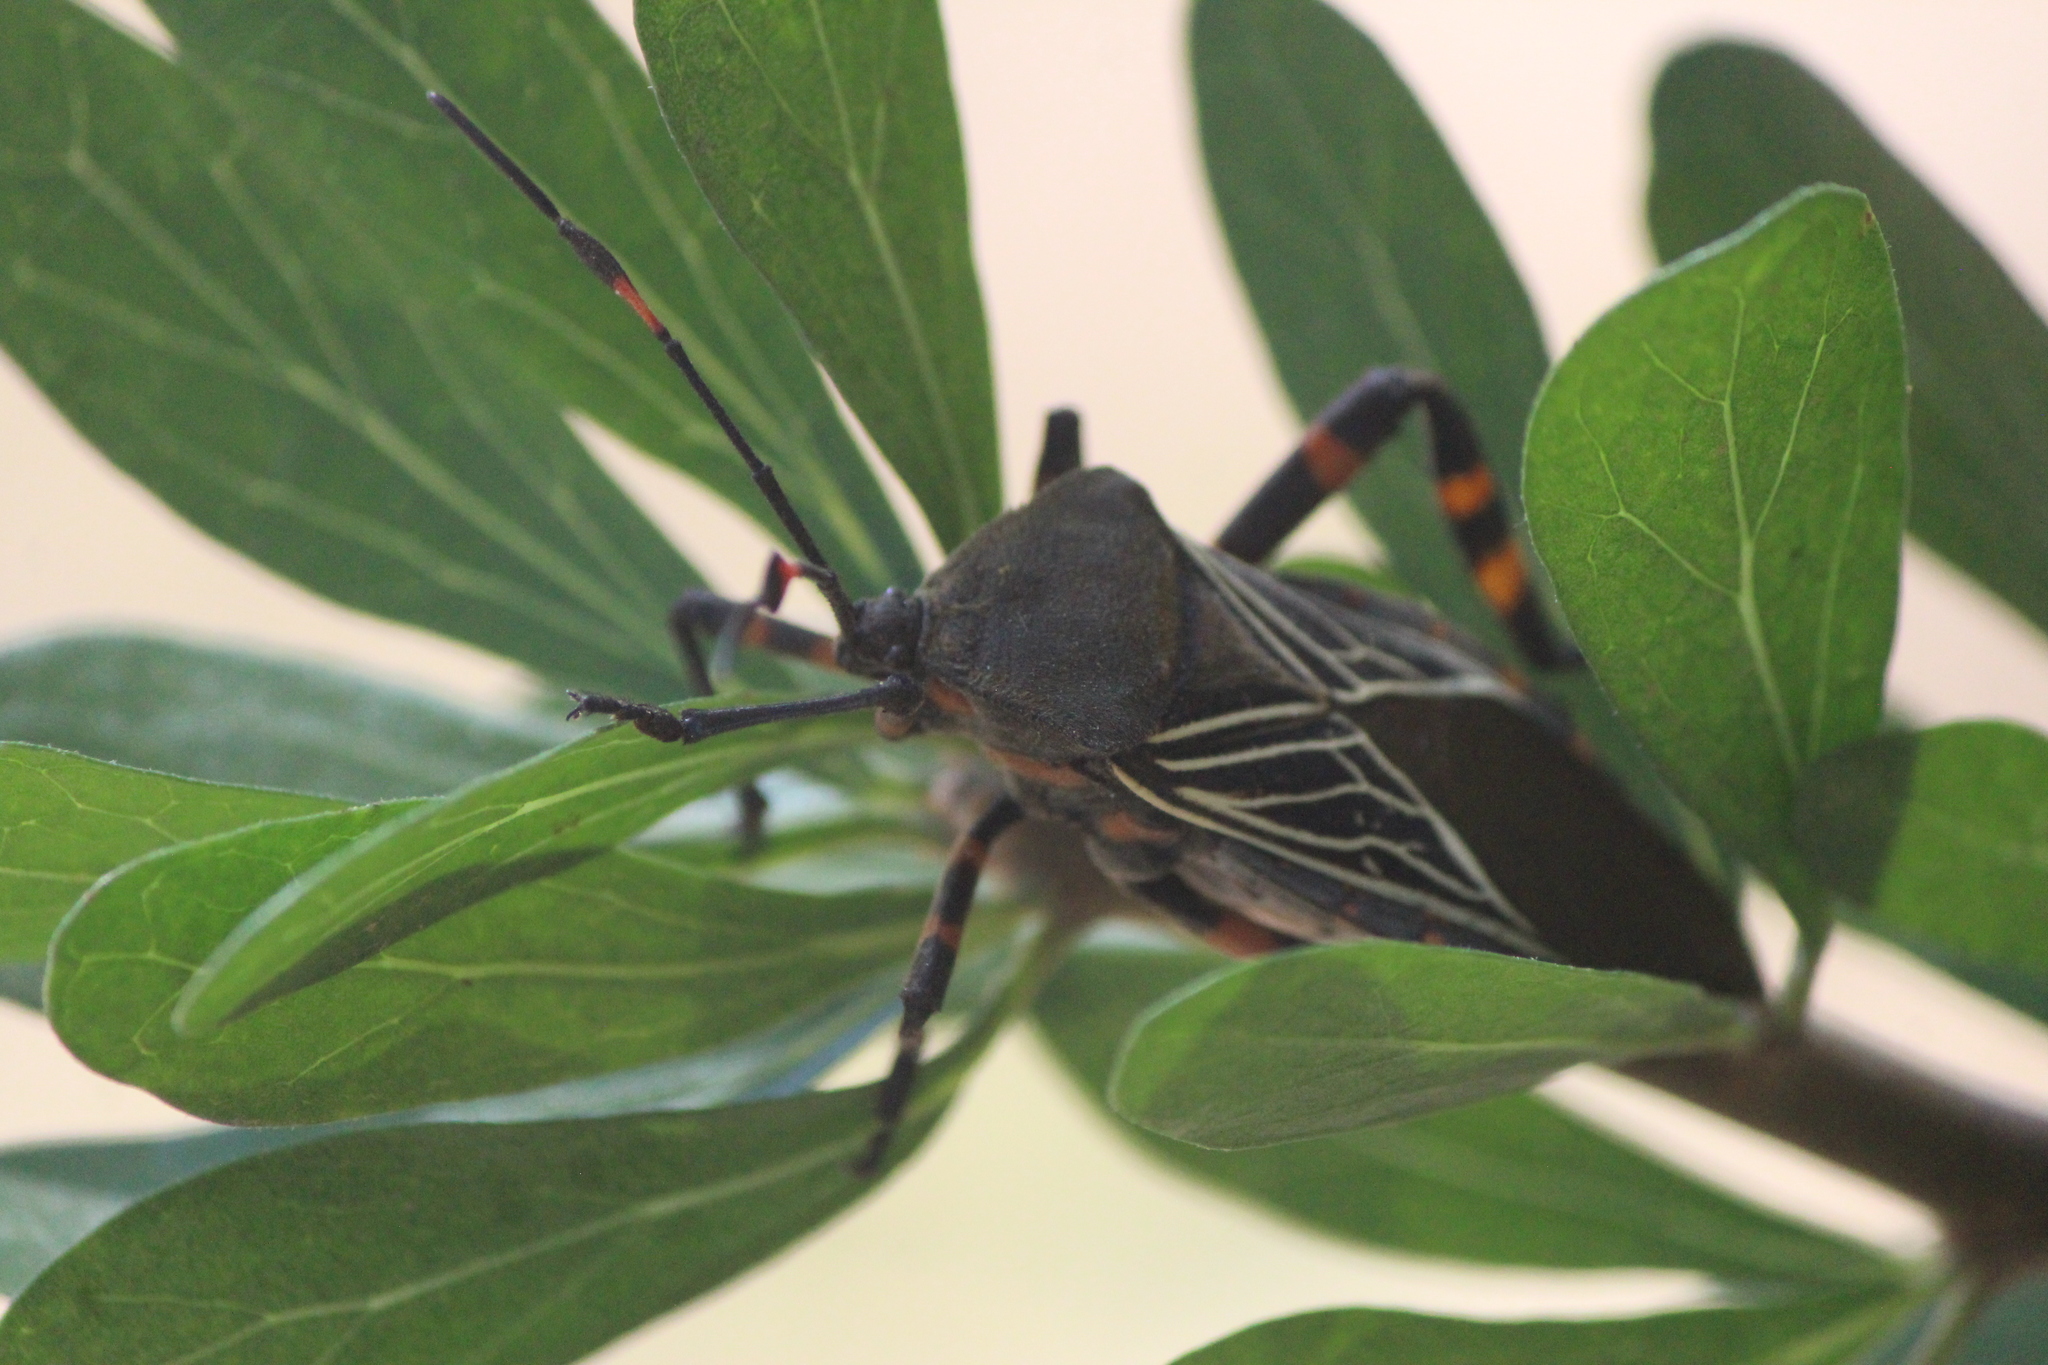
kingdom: Animalia
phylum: Arthropoda
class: Insecta
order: Hemiptera
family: Coreidae
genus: Thasus
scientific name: Thasus
